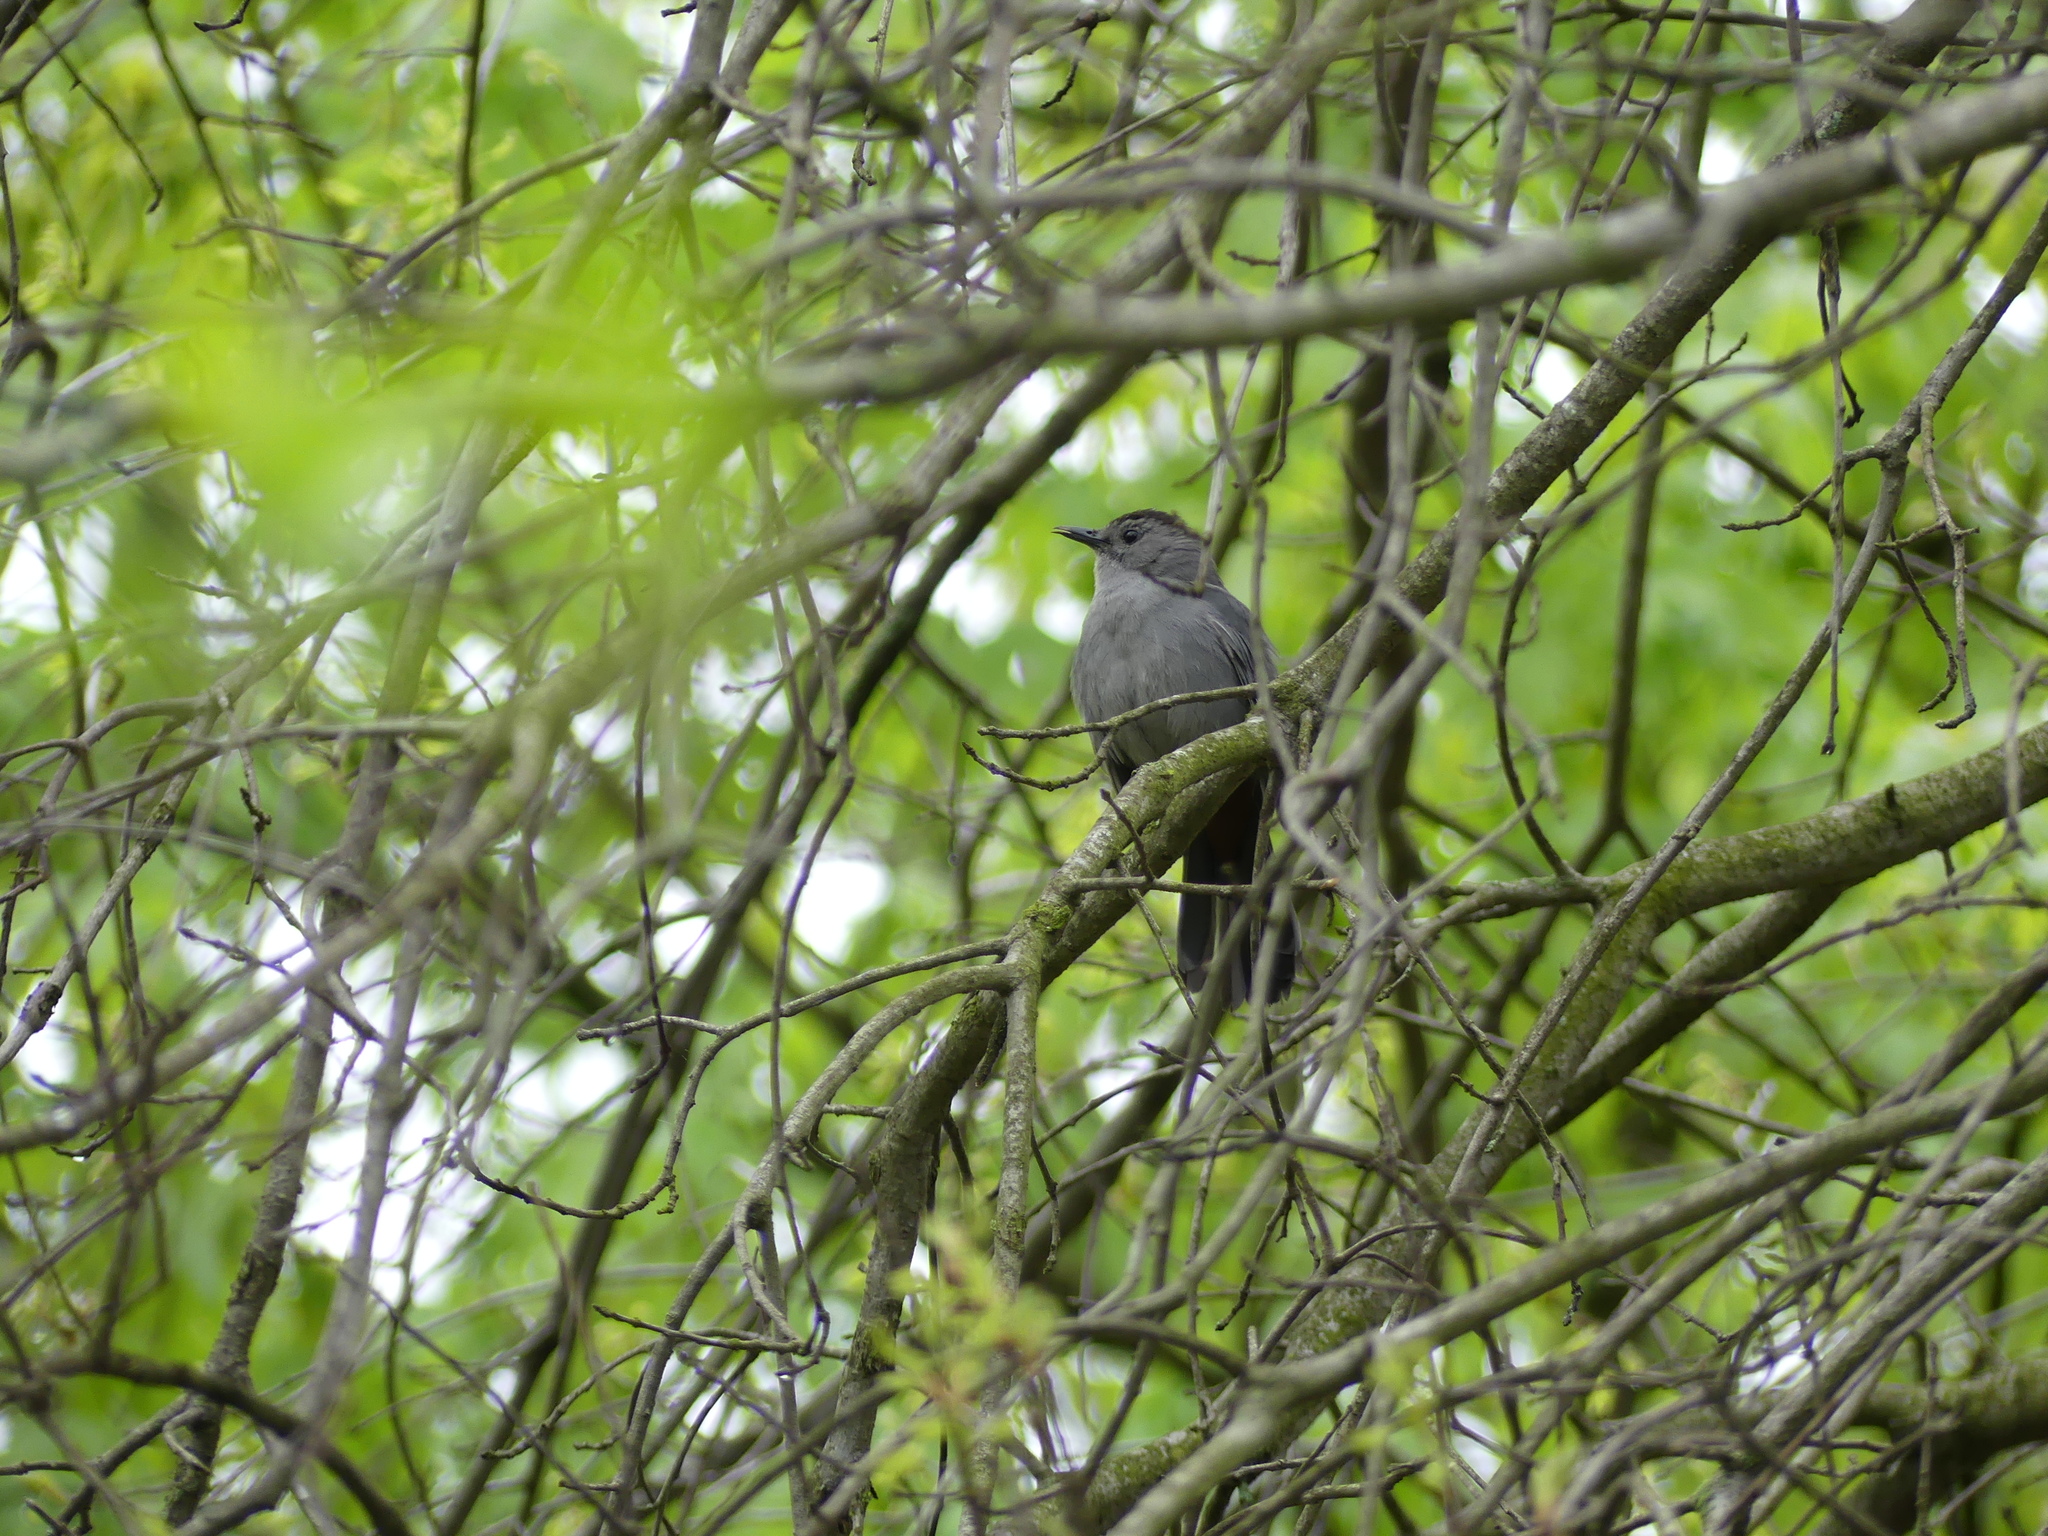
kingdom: Animalia
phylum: Chordata
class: Aves
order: Passeriformes
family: Mimidae
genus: Dumetella
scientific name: Dumetella carolinensis
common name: Gray catbird
